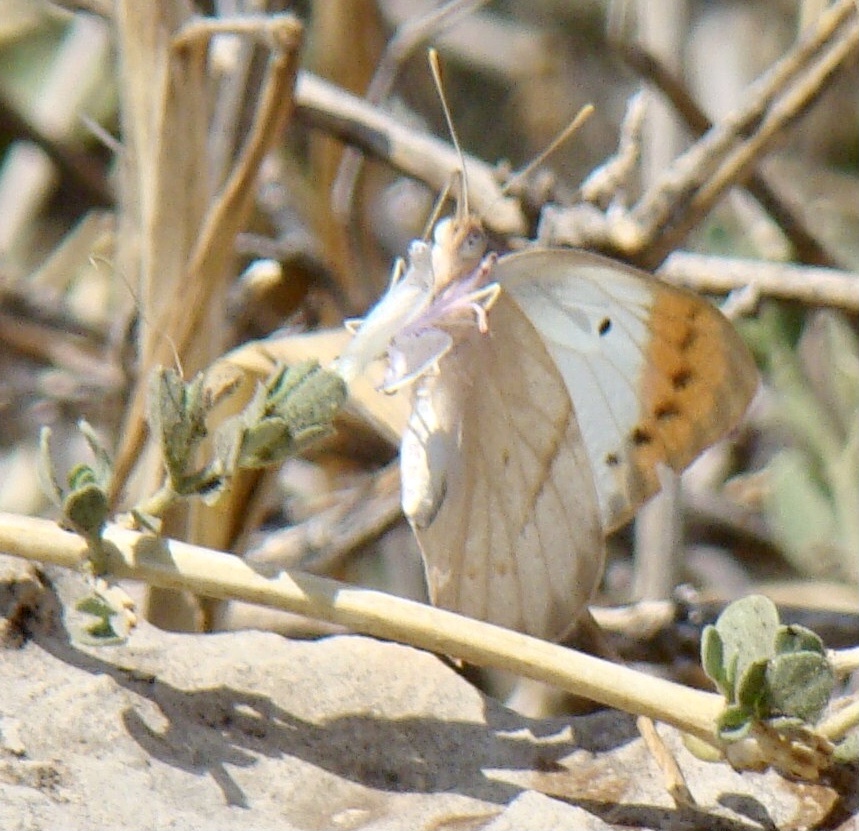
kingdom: Animalia
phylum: Arthropoda
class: Insecta
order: Lepidoptera
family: Pieridae
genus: Colotis
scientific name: Colotis ione
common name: Bushveld purple tip
